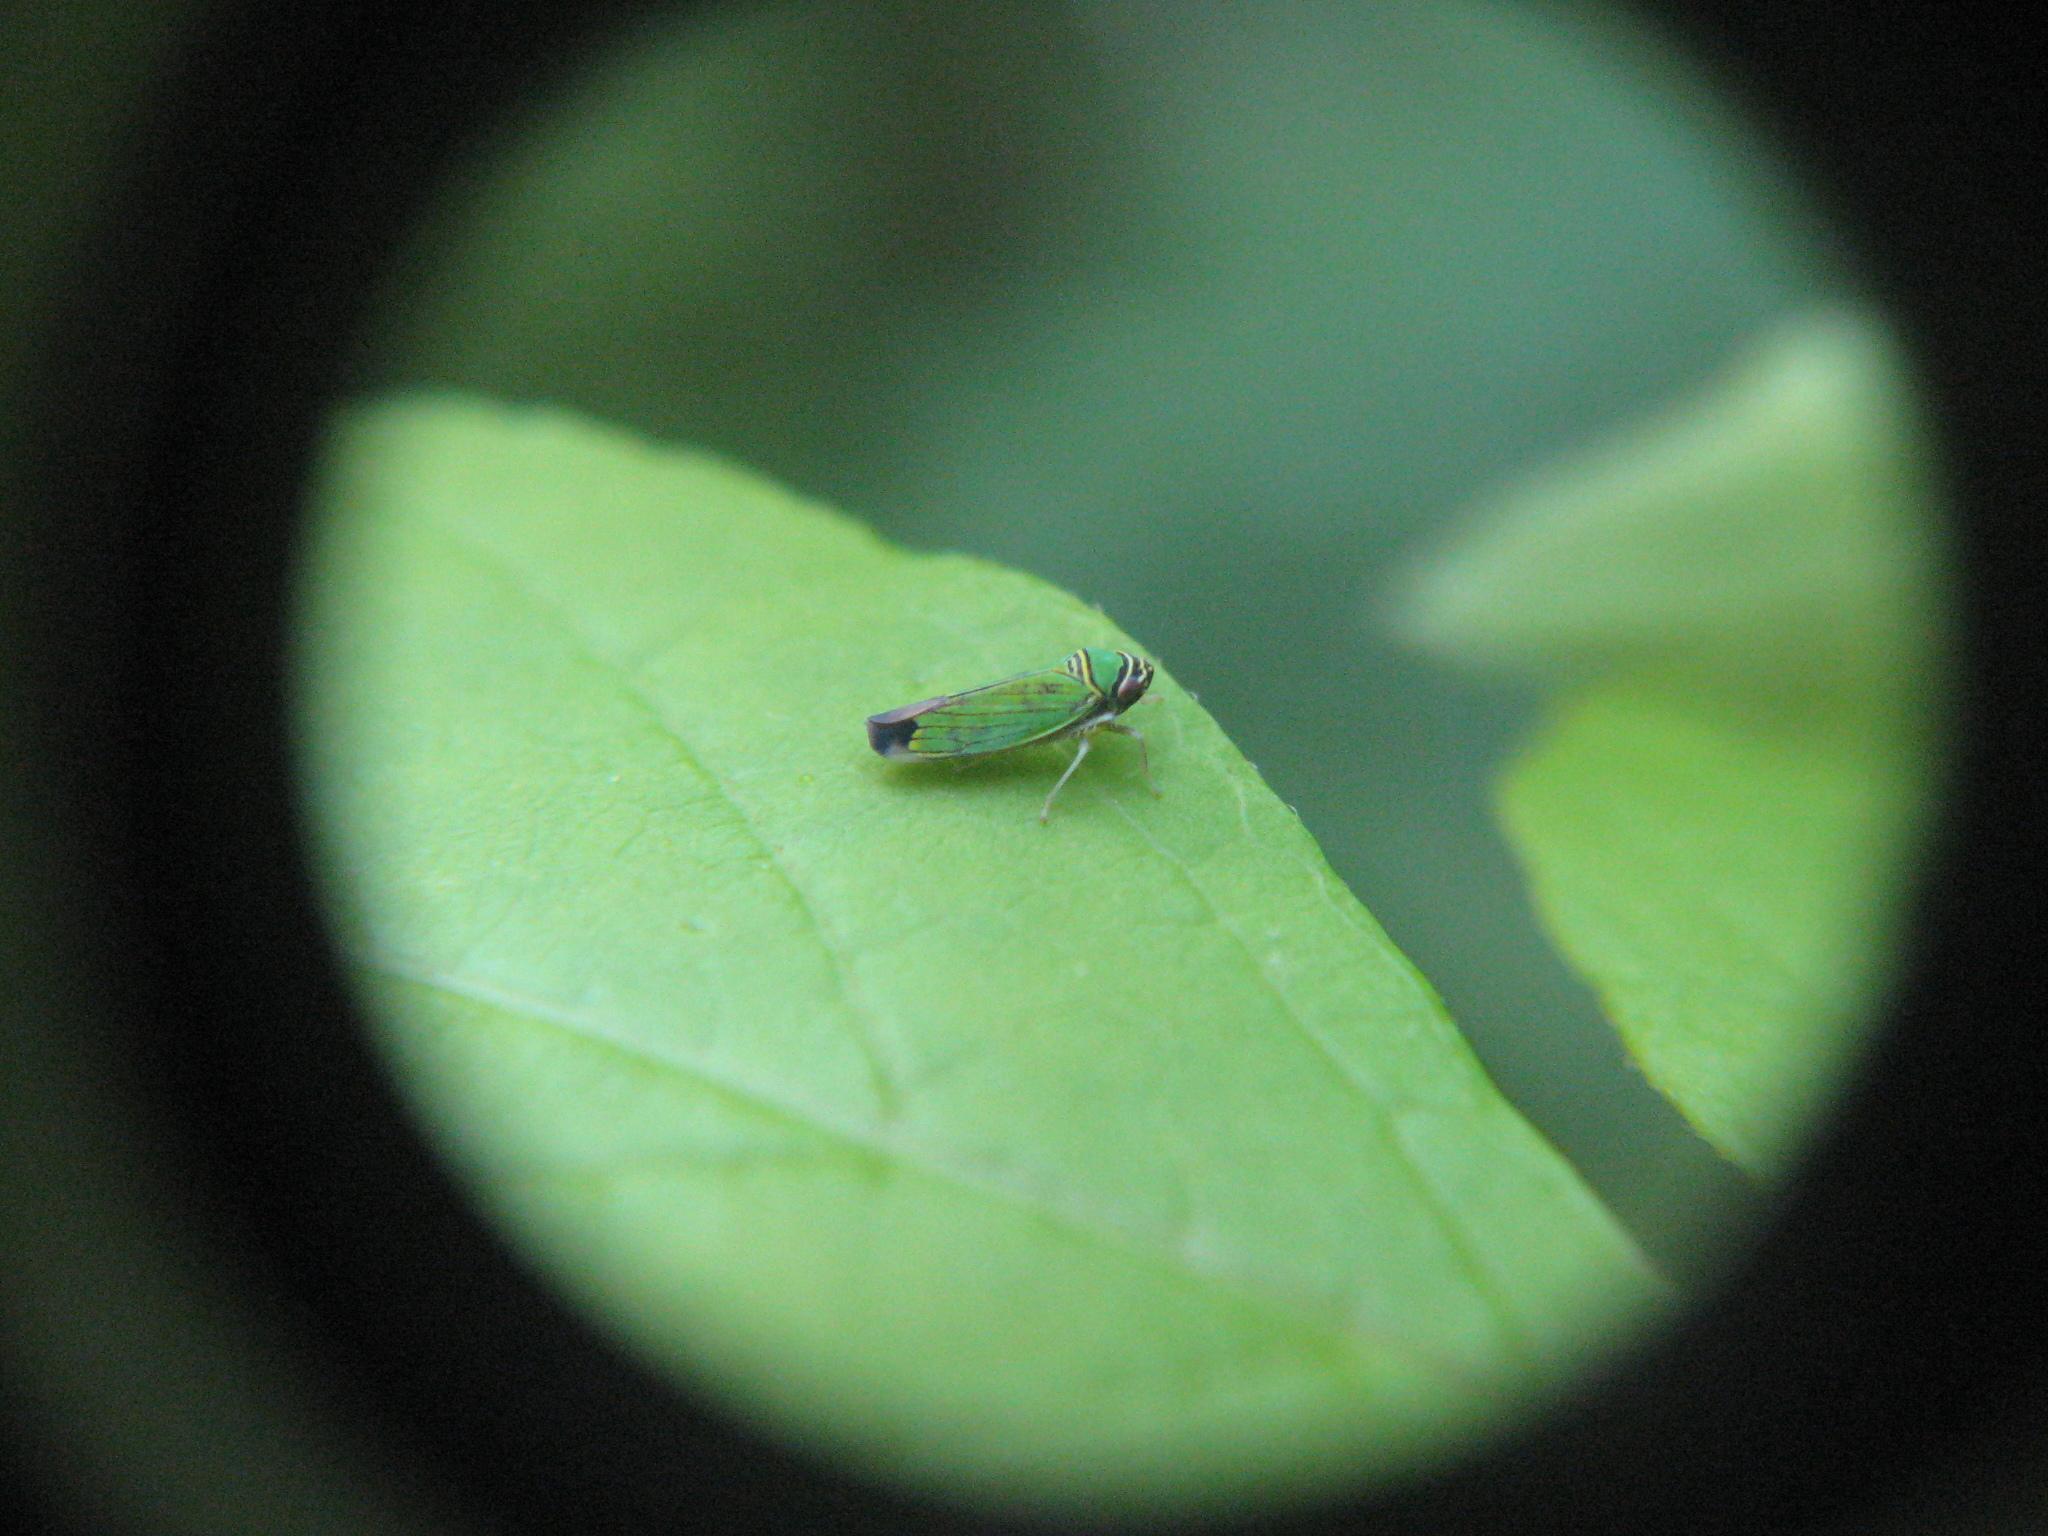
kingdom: Animalia
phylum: Arthropoda
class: Insecta
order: Hemiptera
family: Cicadellidae
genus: Tylozygus
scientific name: Tylozygus geometricus
